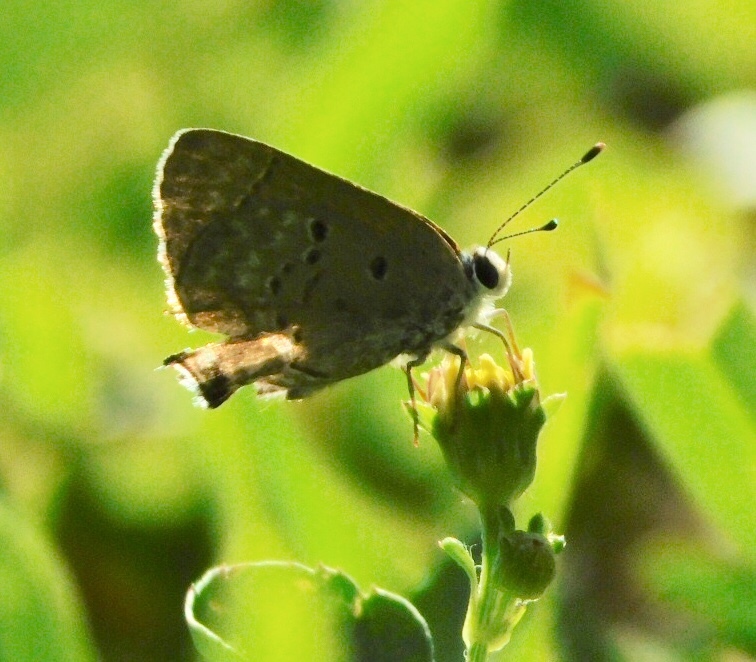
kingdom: Animalia
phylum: Arthropoda
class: Insecta
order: Lepidoptera
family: Lycaenidae
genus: Callicista
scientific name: Callicista columella
